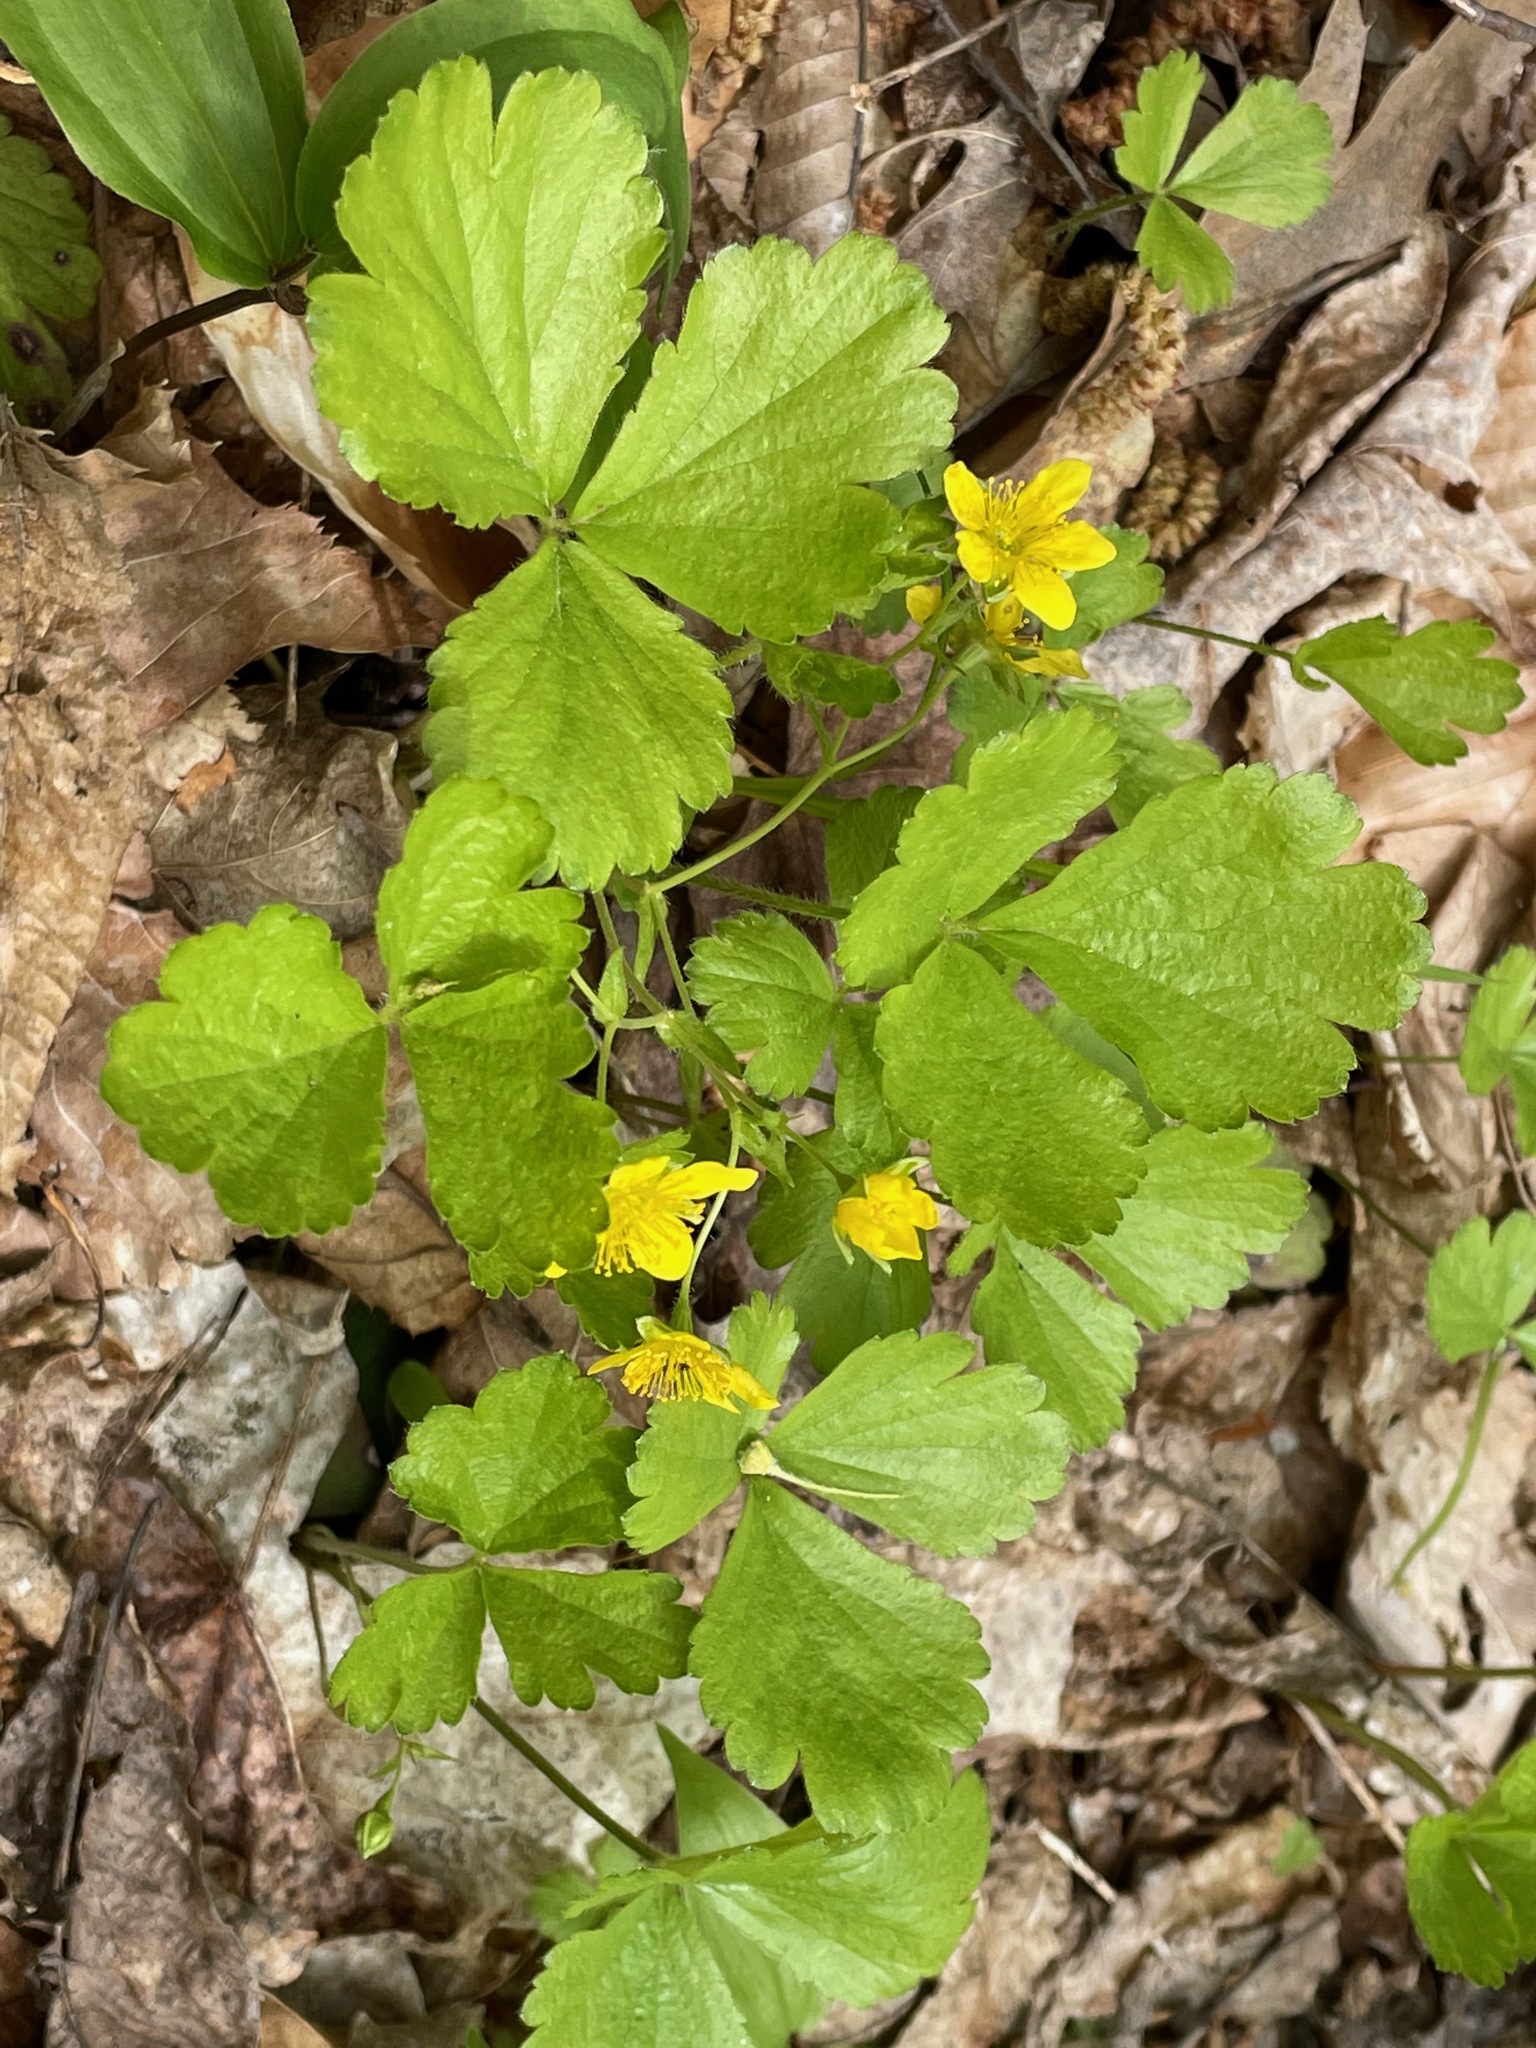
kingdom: Plantae
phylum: Tracheophyta
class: Magnoliopsida
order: Rosales
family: Rosaceae
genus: Geum
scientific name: Geum fragarioides
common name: Appalachian barren strawberry
